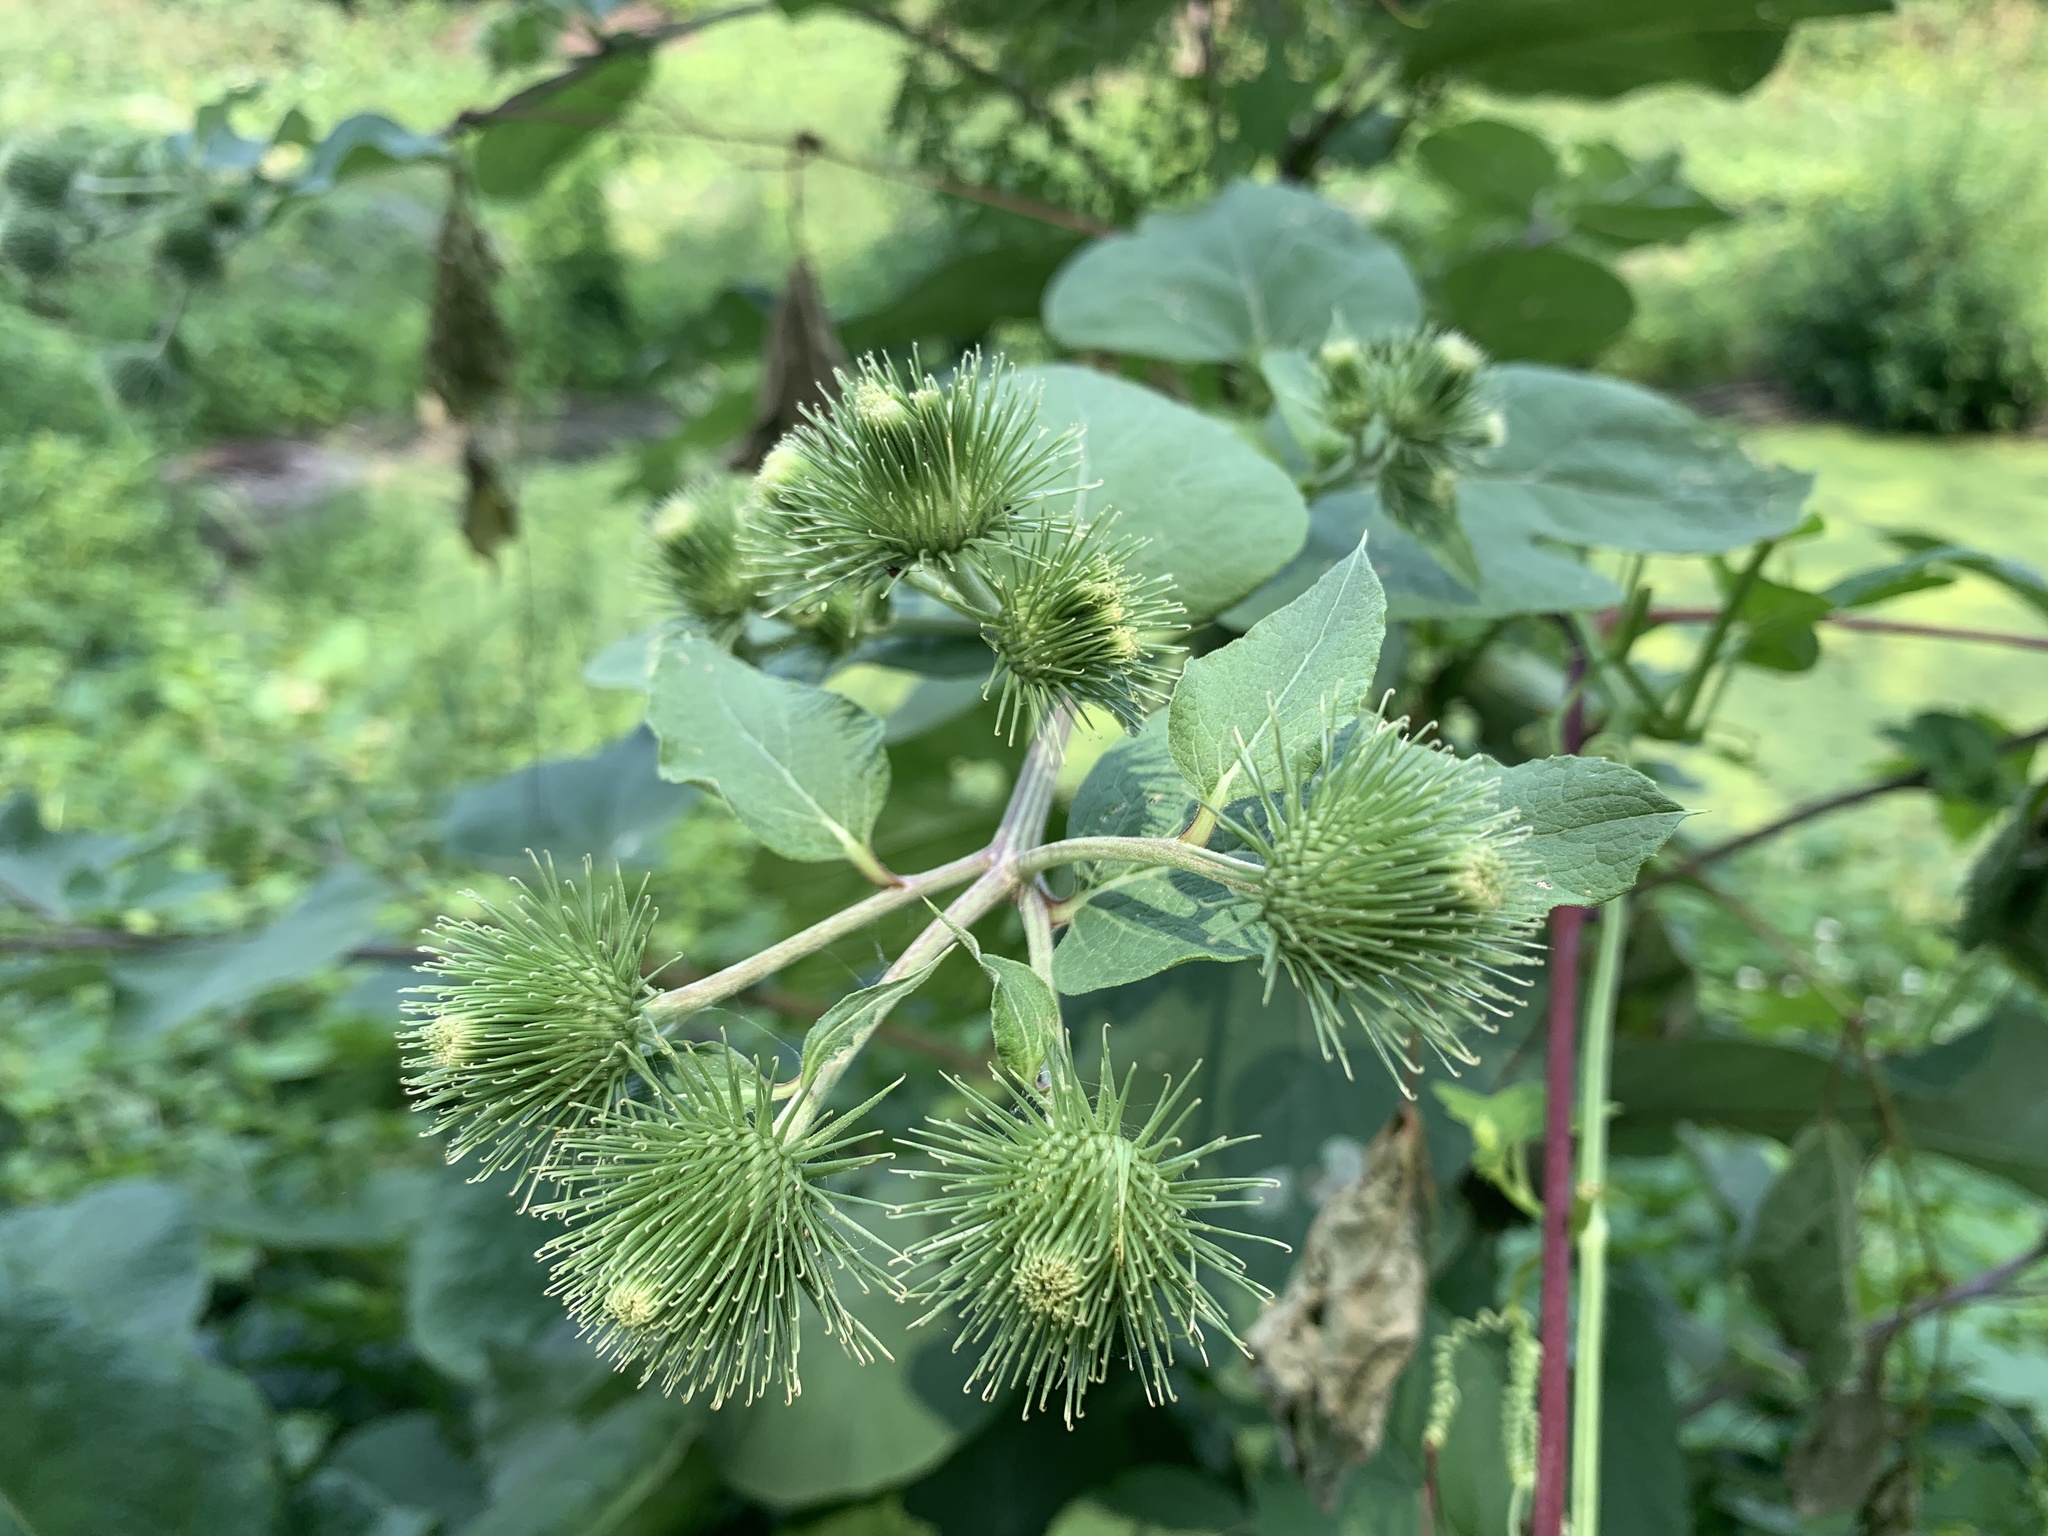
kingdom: Plantae
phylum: Tracheophyta
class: Magnoliopsida
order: Asterales
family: Asteraceae
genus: Arctium
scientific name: Arctium lappa
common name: Greater burdock
